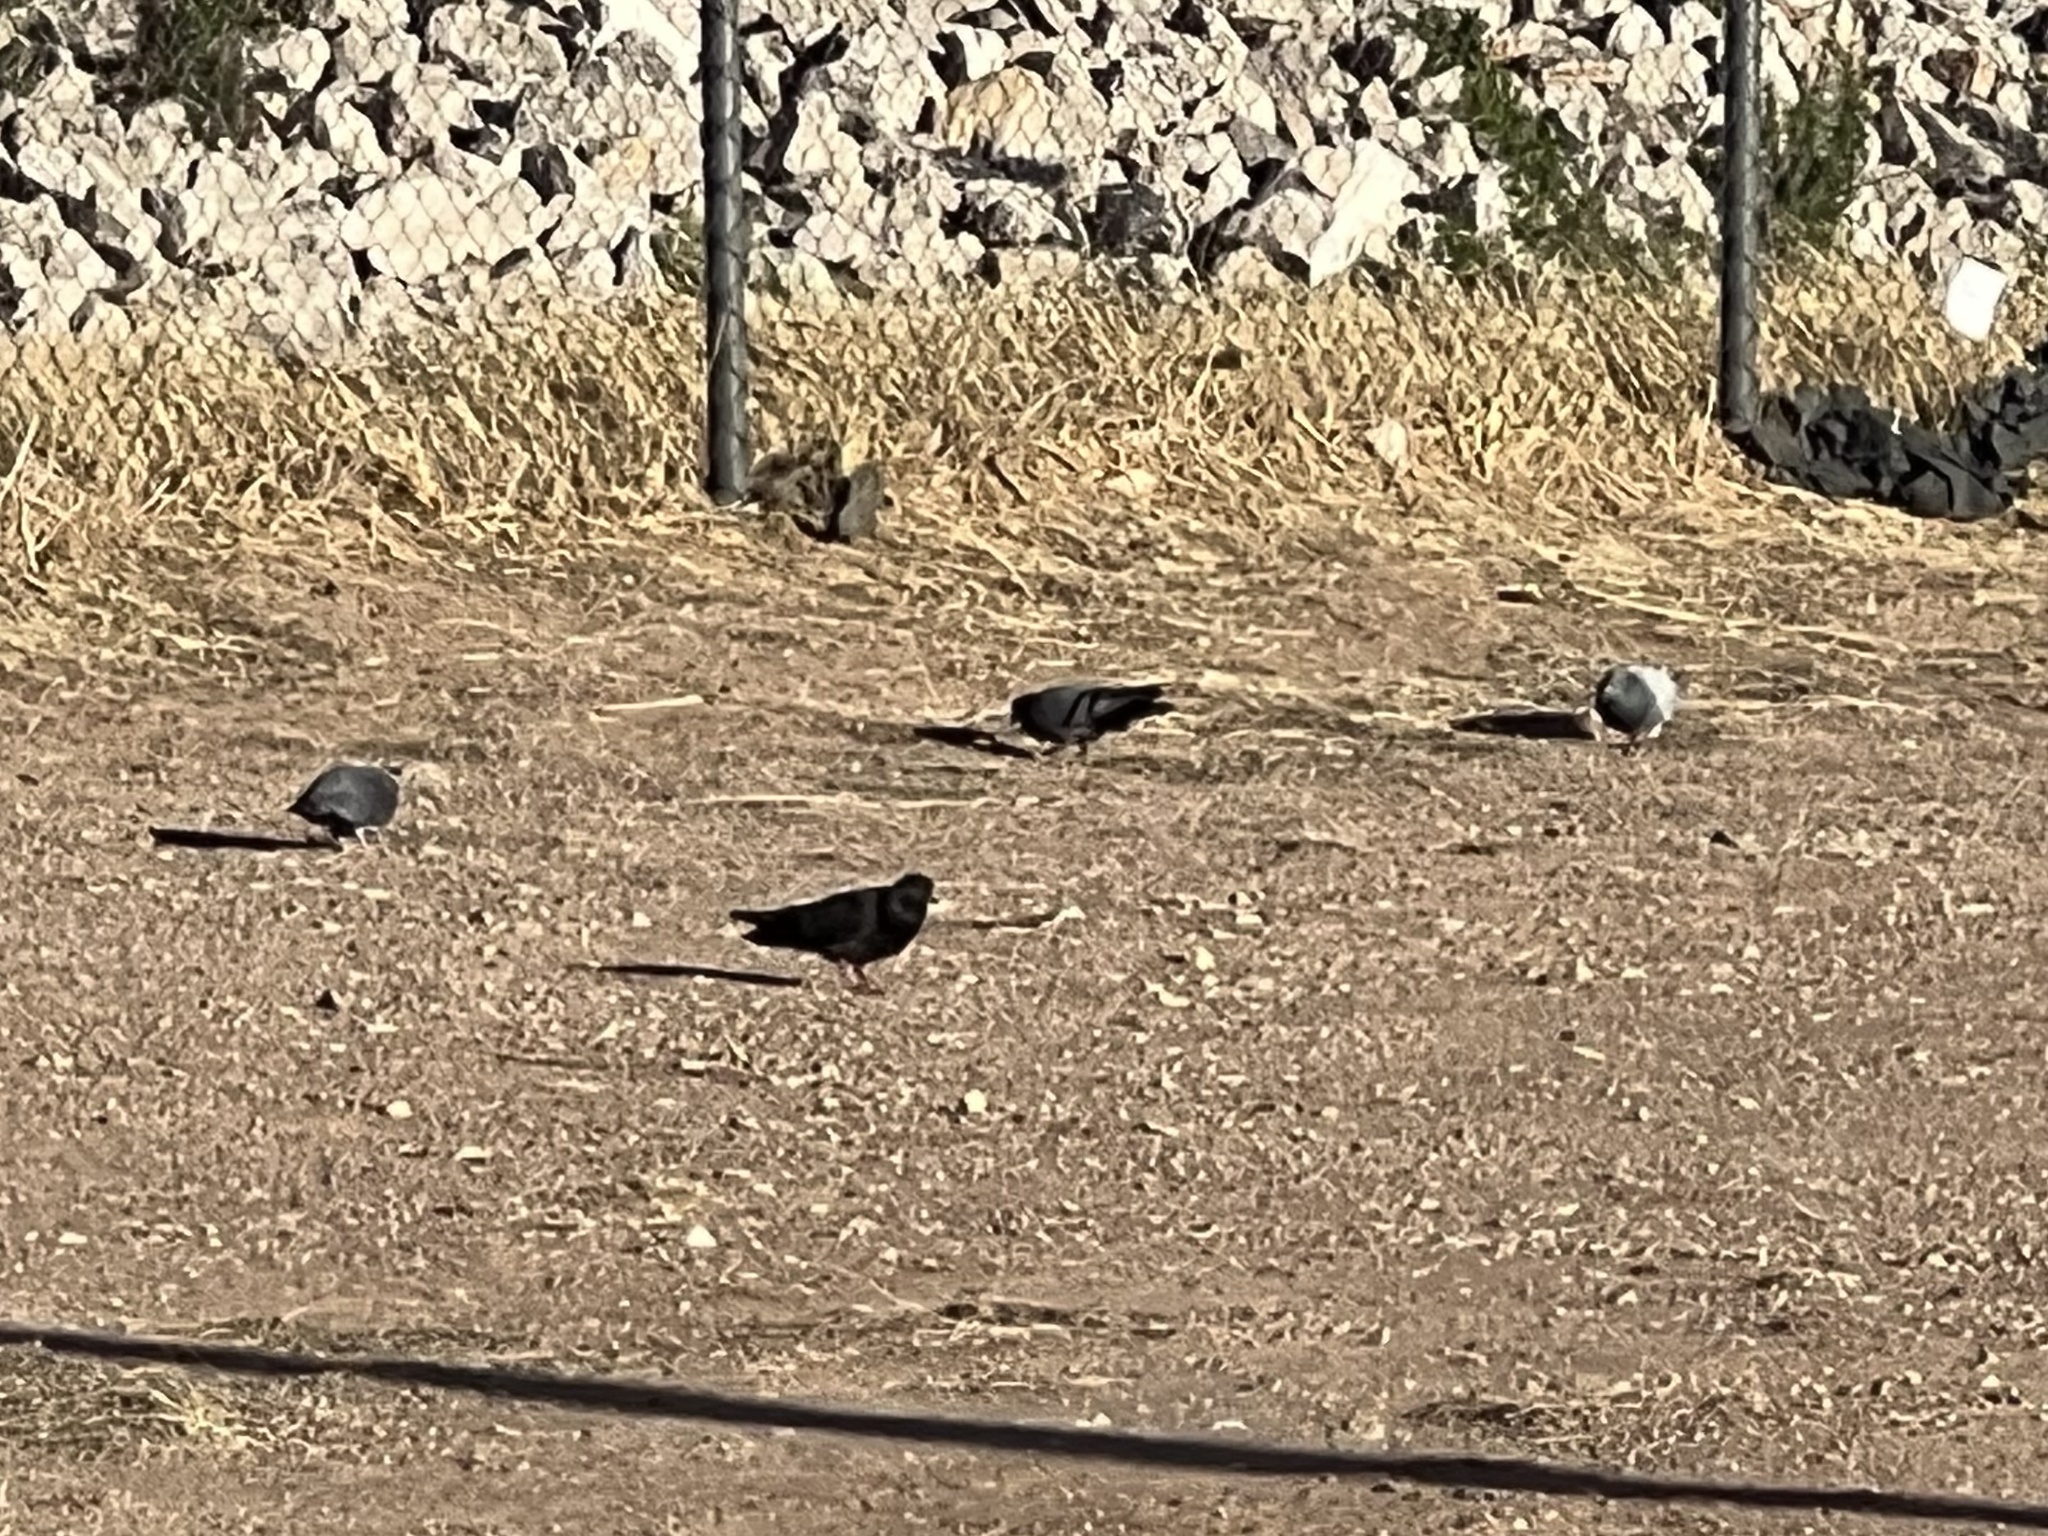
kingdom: Animalia
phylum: Chordata
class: Aves
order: Columbiformes
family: Columbidae
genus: Columba
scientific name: Columba livia
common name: Rock pigeon
